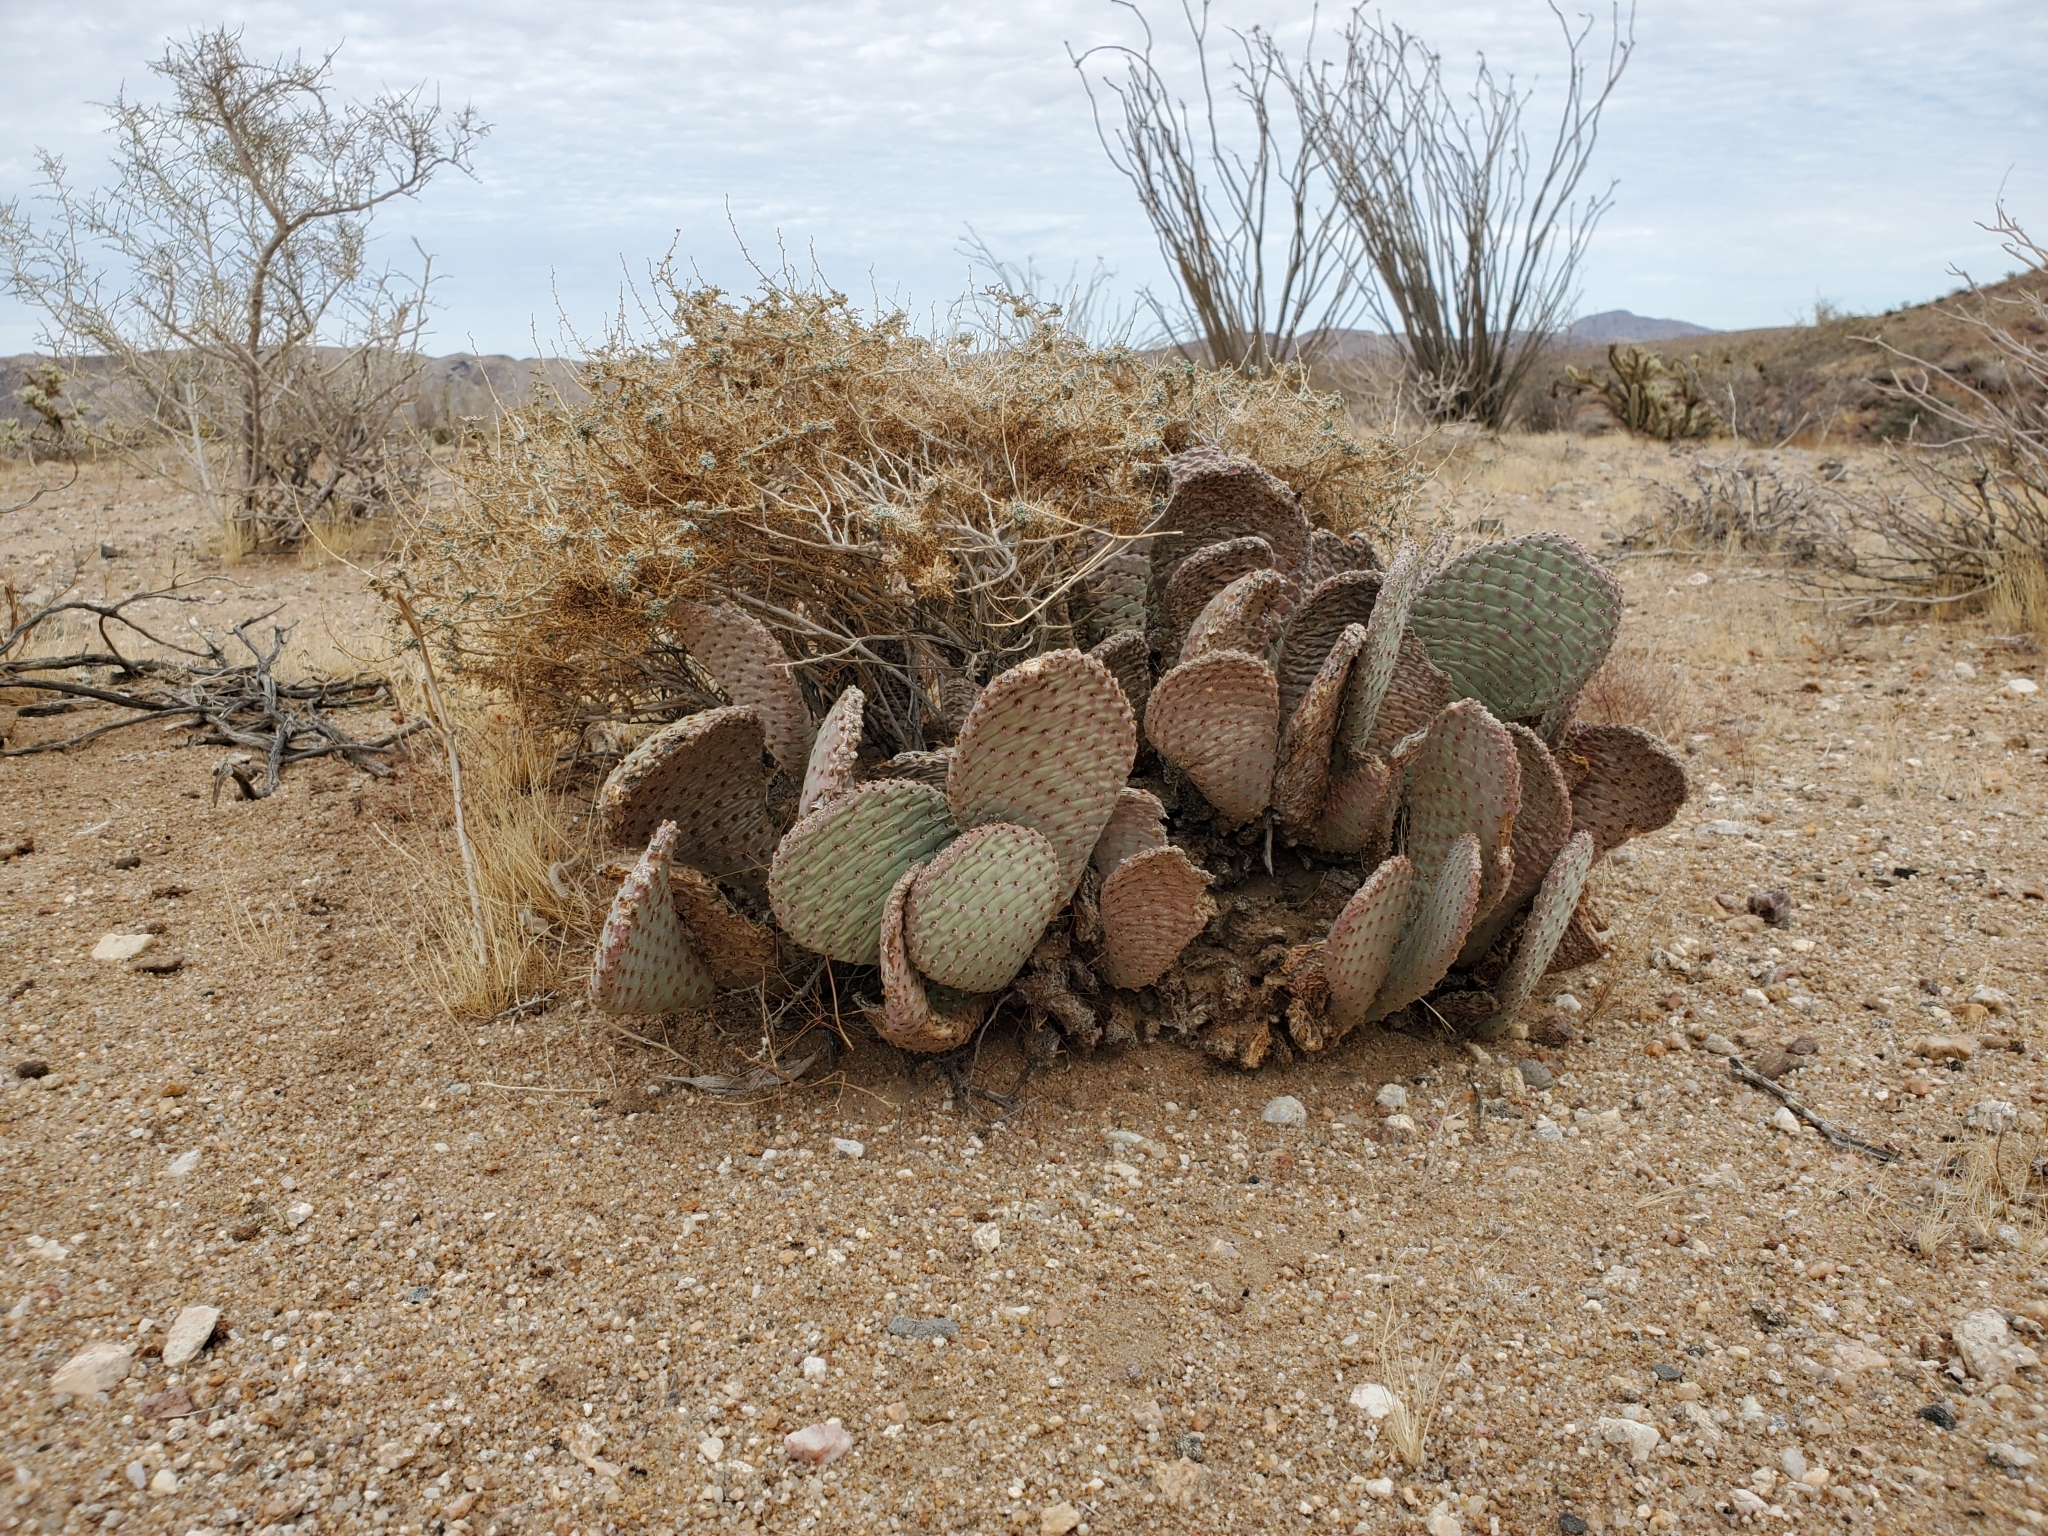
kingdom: Plantae
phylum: Tracheophyta
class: Magnoliopsida
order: Caryophyllales
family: Cactaceae
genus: Opuntia
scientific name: Opuntia basilaris
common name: Beavertail prickly-pear
